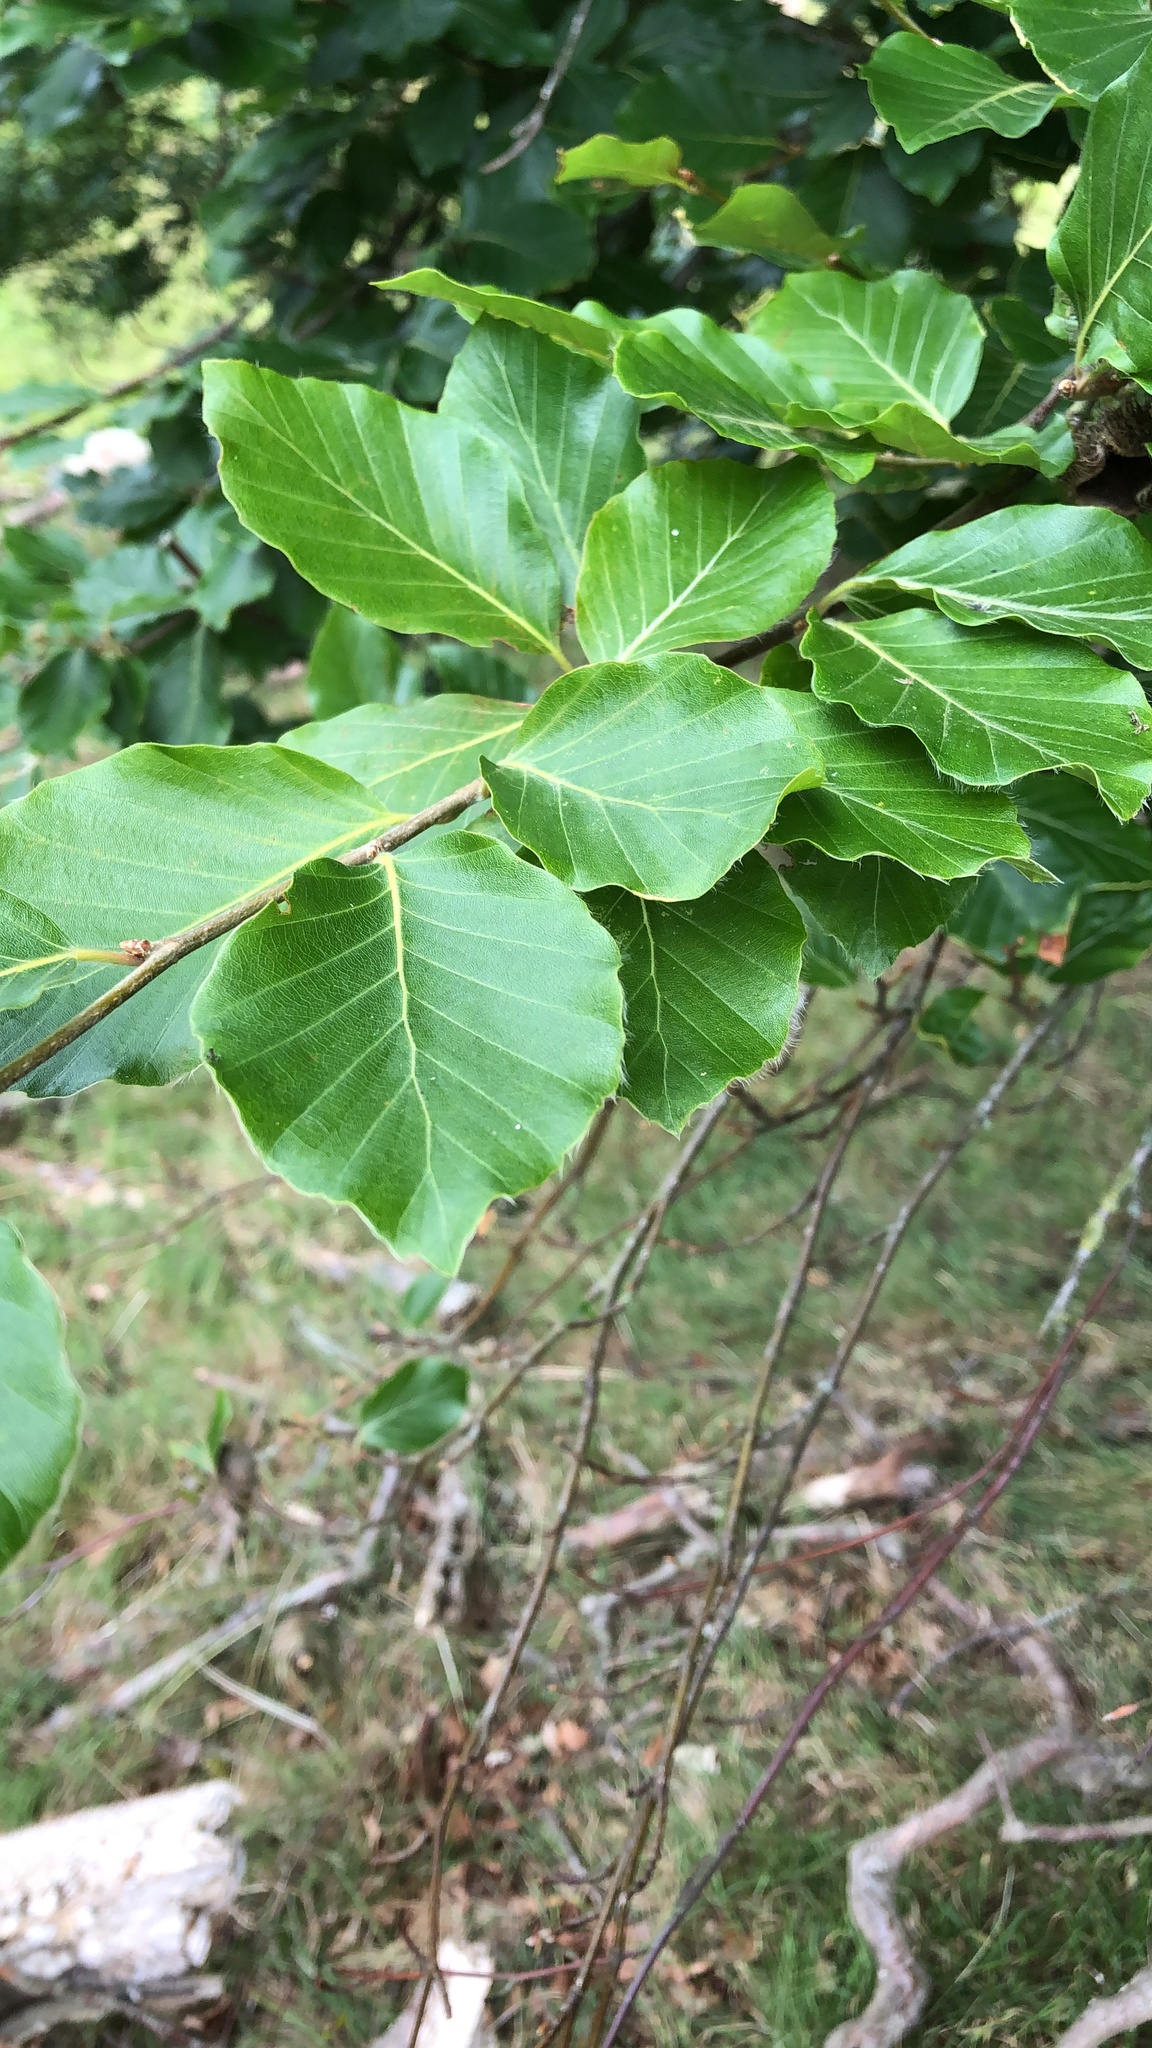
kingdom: Plantae
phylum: Tracheophyta
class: Magnoliopsida
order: Fagales
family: Fagaceae
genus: Fagus
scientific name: Fagus sylvatica
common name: Beech
